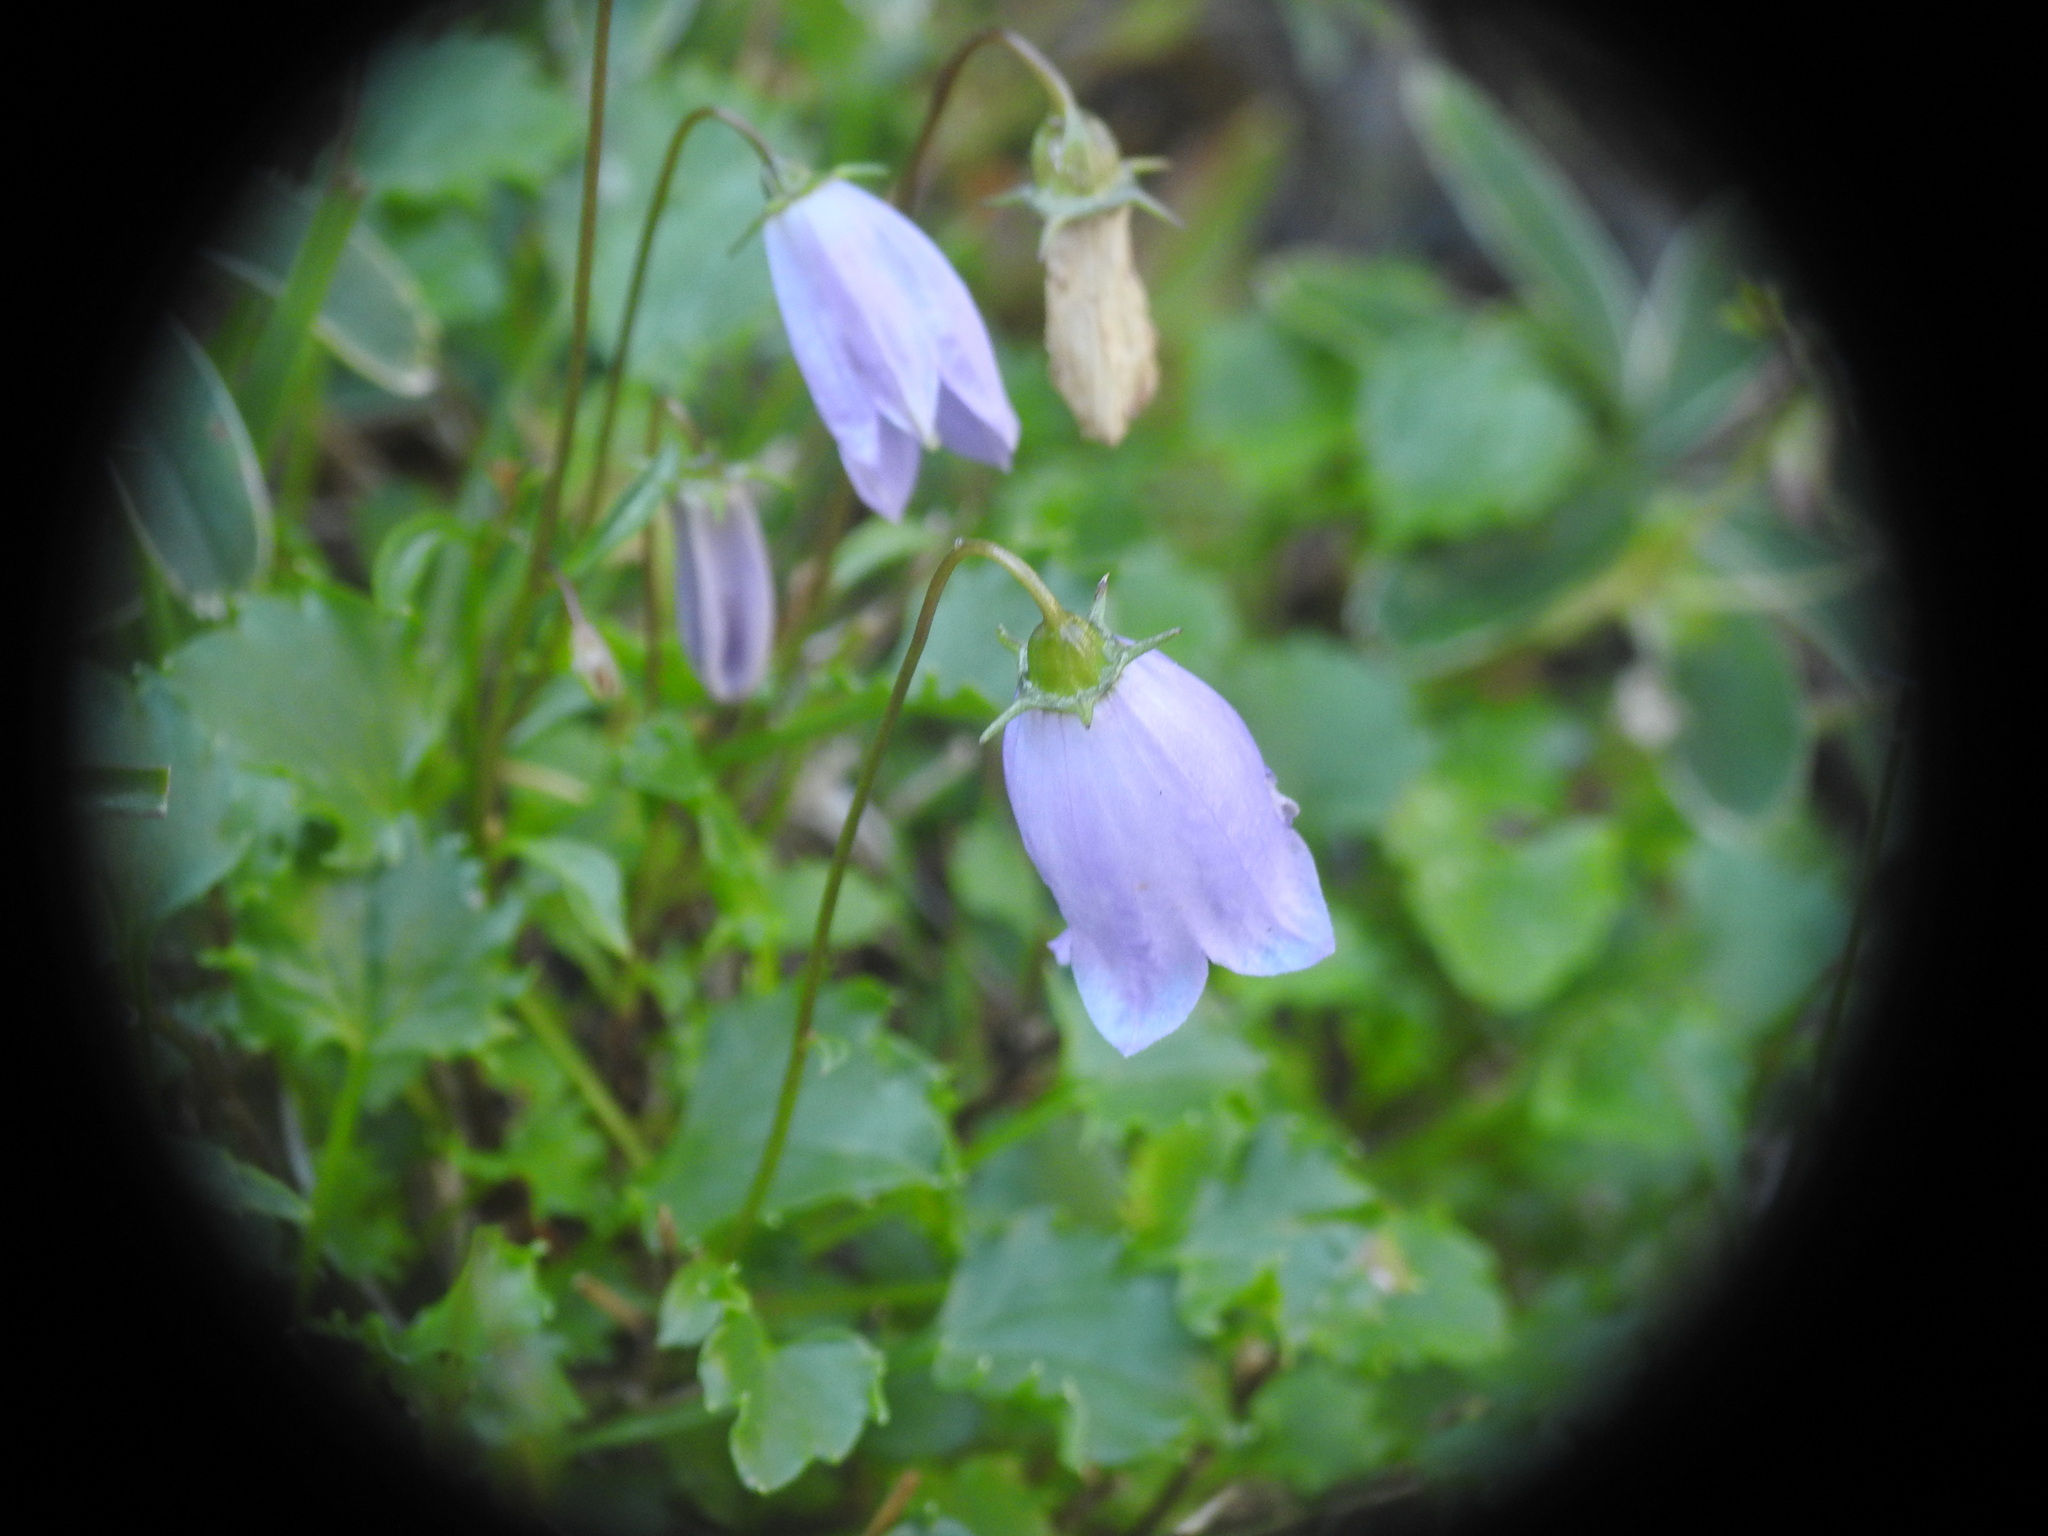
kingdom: Plantae
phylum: Tracheophyta
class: Magnoliopsida
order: Asterales
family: Campanulaceae
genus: Campanula
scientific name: Campanula cochleariifolia
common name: Fairies'-thimbles
